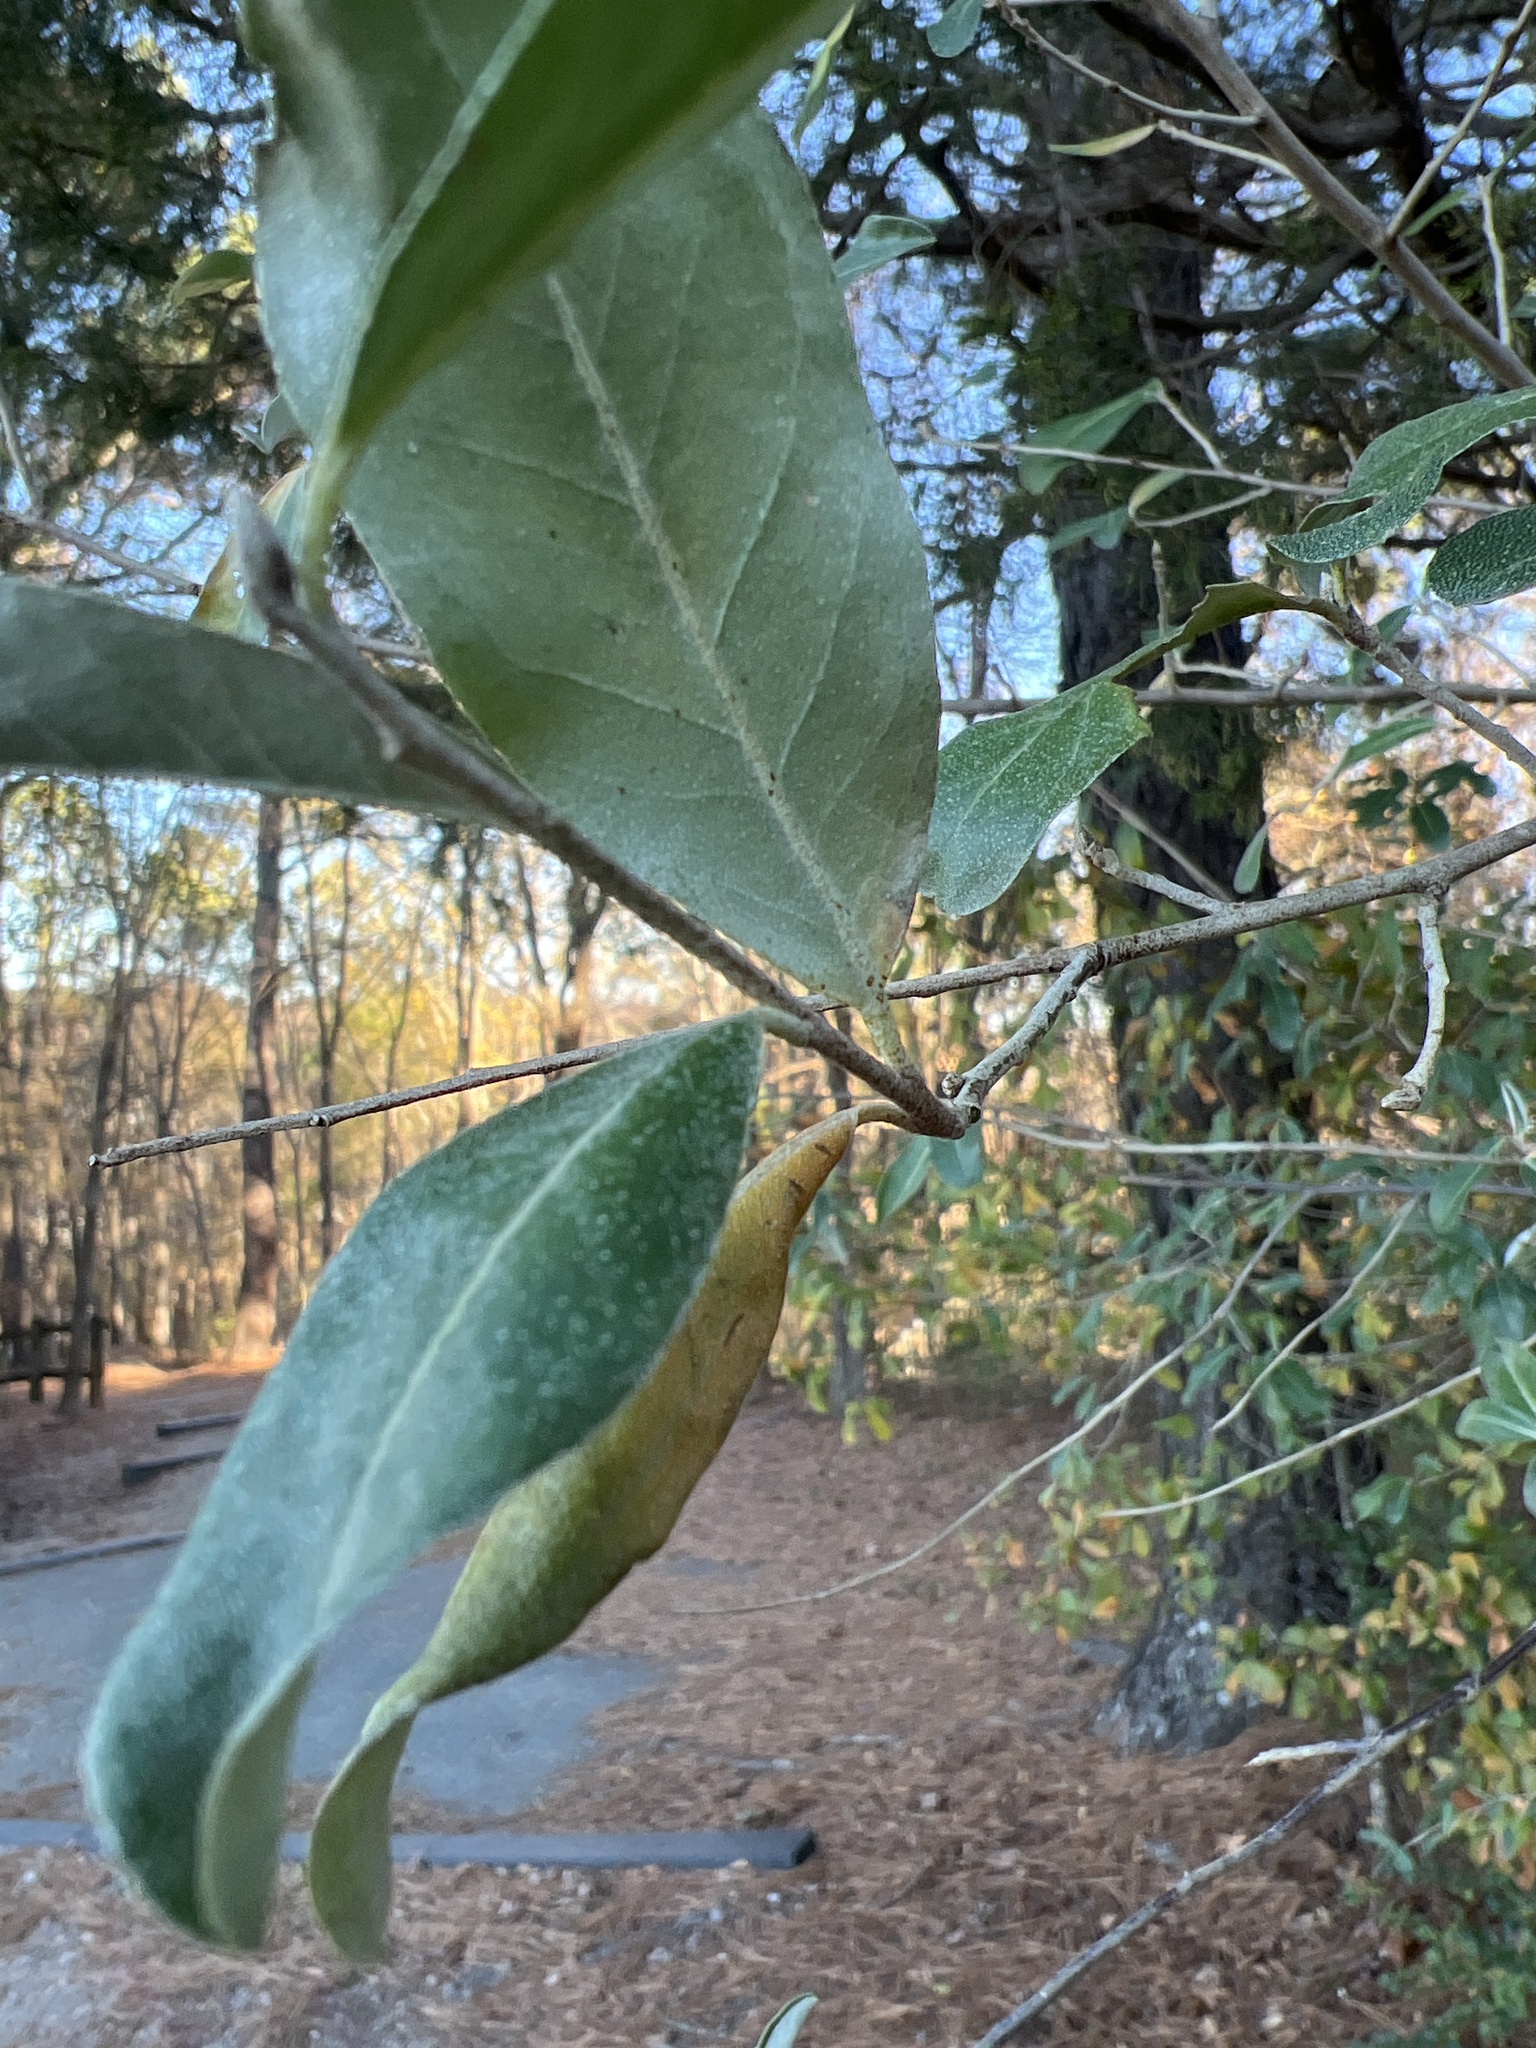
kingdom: Plantae
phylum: Tracheophyta
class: Magnoliopsida
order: Rosales
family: Elaeagnaceae
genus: Elaeagnus
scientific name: Elaeagnus umbellata
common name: Autumn olive
